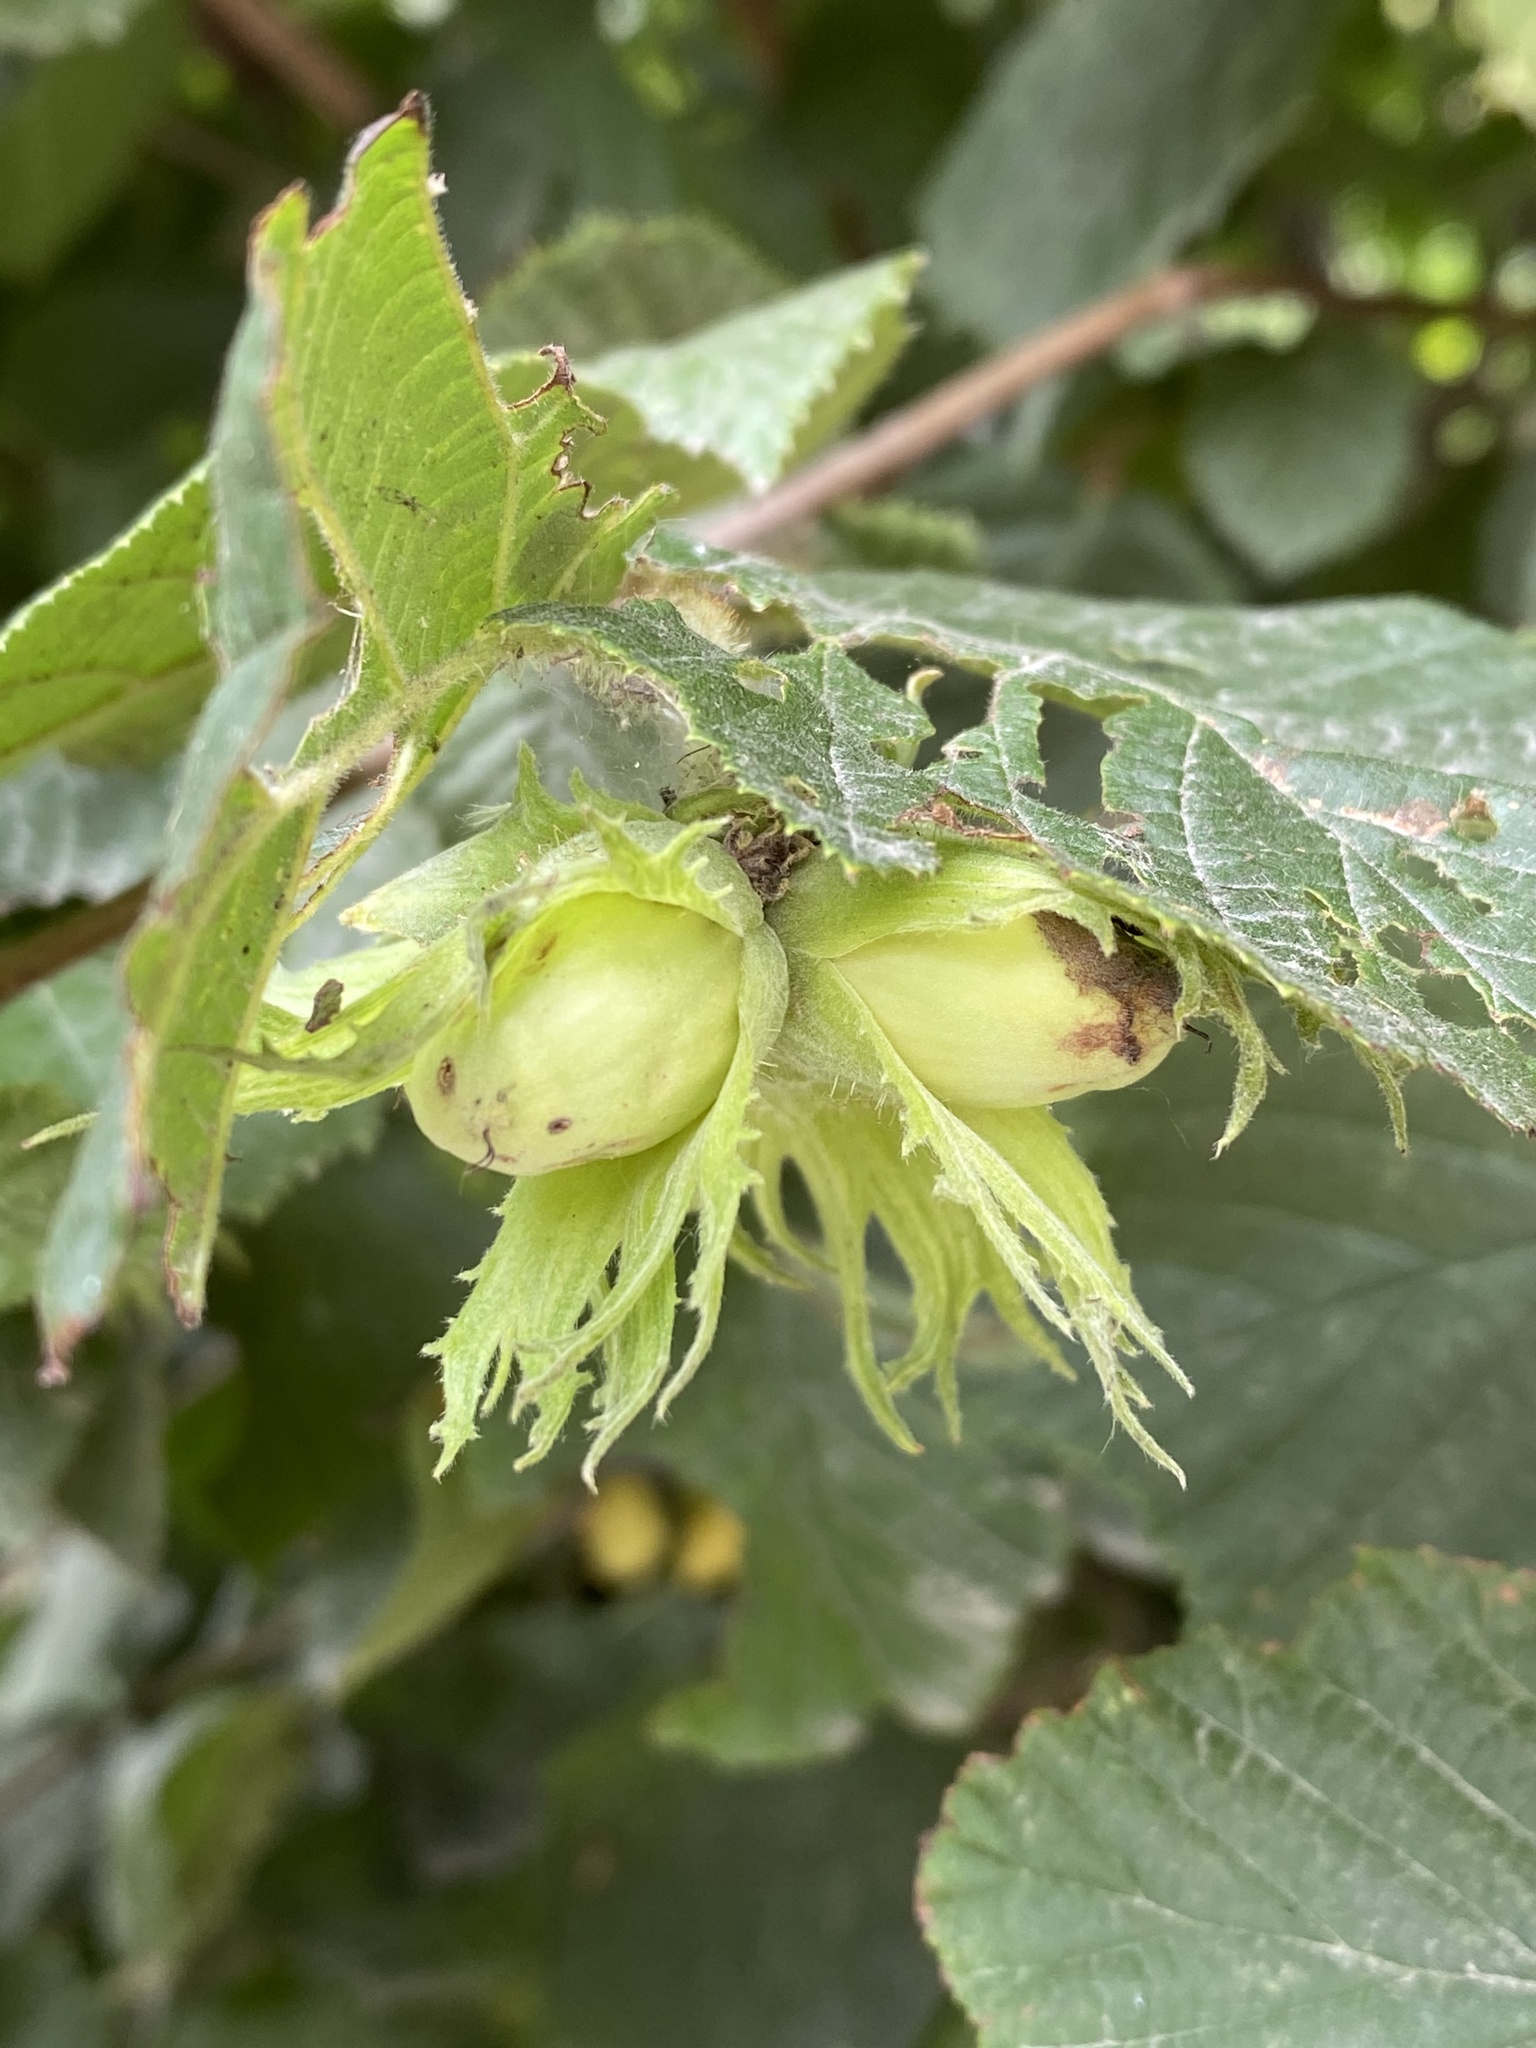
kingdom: Plantae
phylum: Tracheophyta
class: Magnoliopsida
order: Fagales
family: Betulaceae
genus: Corylus
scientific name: Corylus avellana
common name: European hazel
